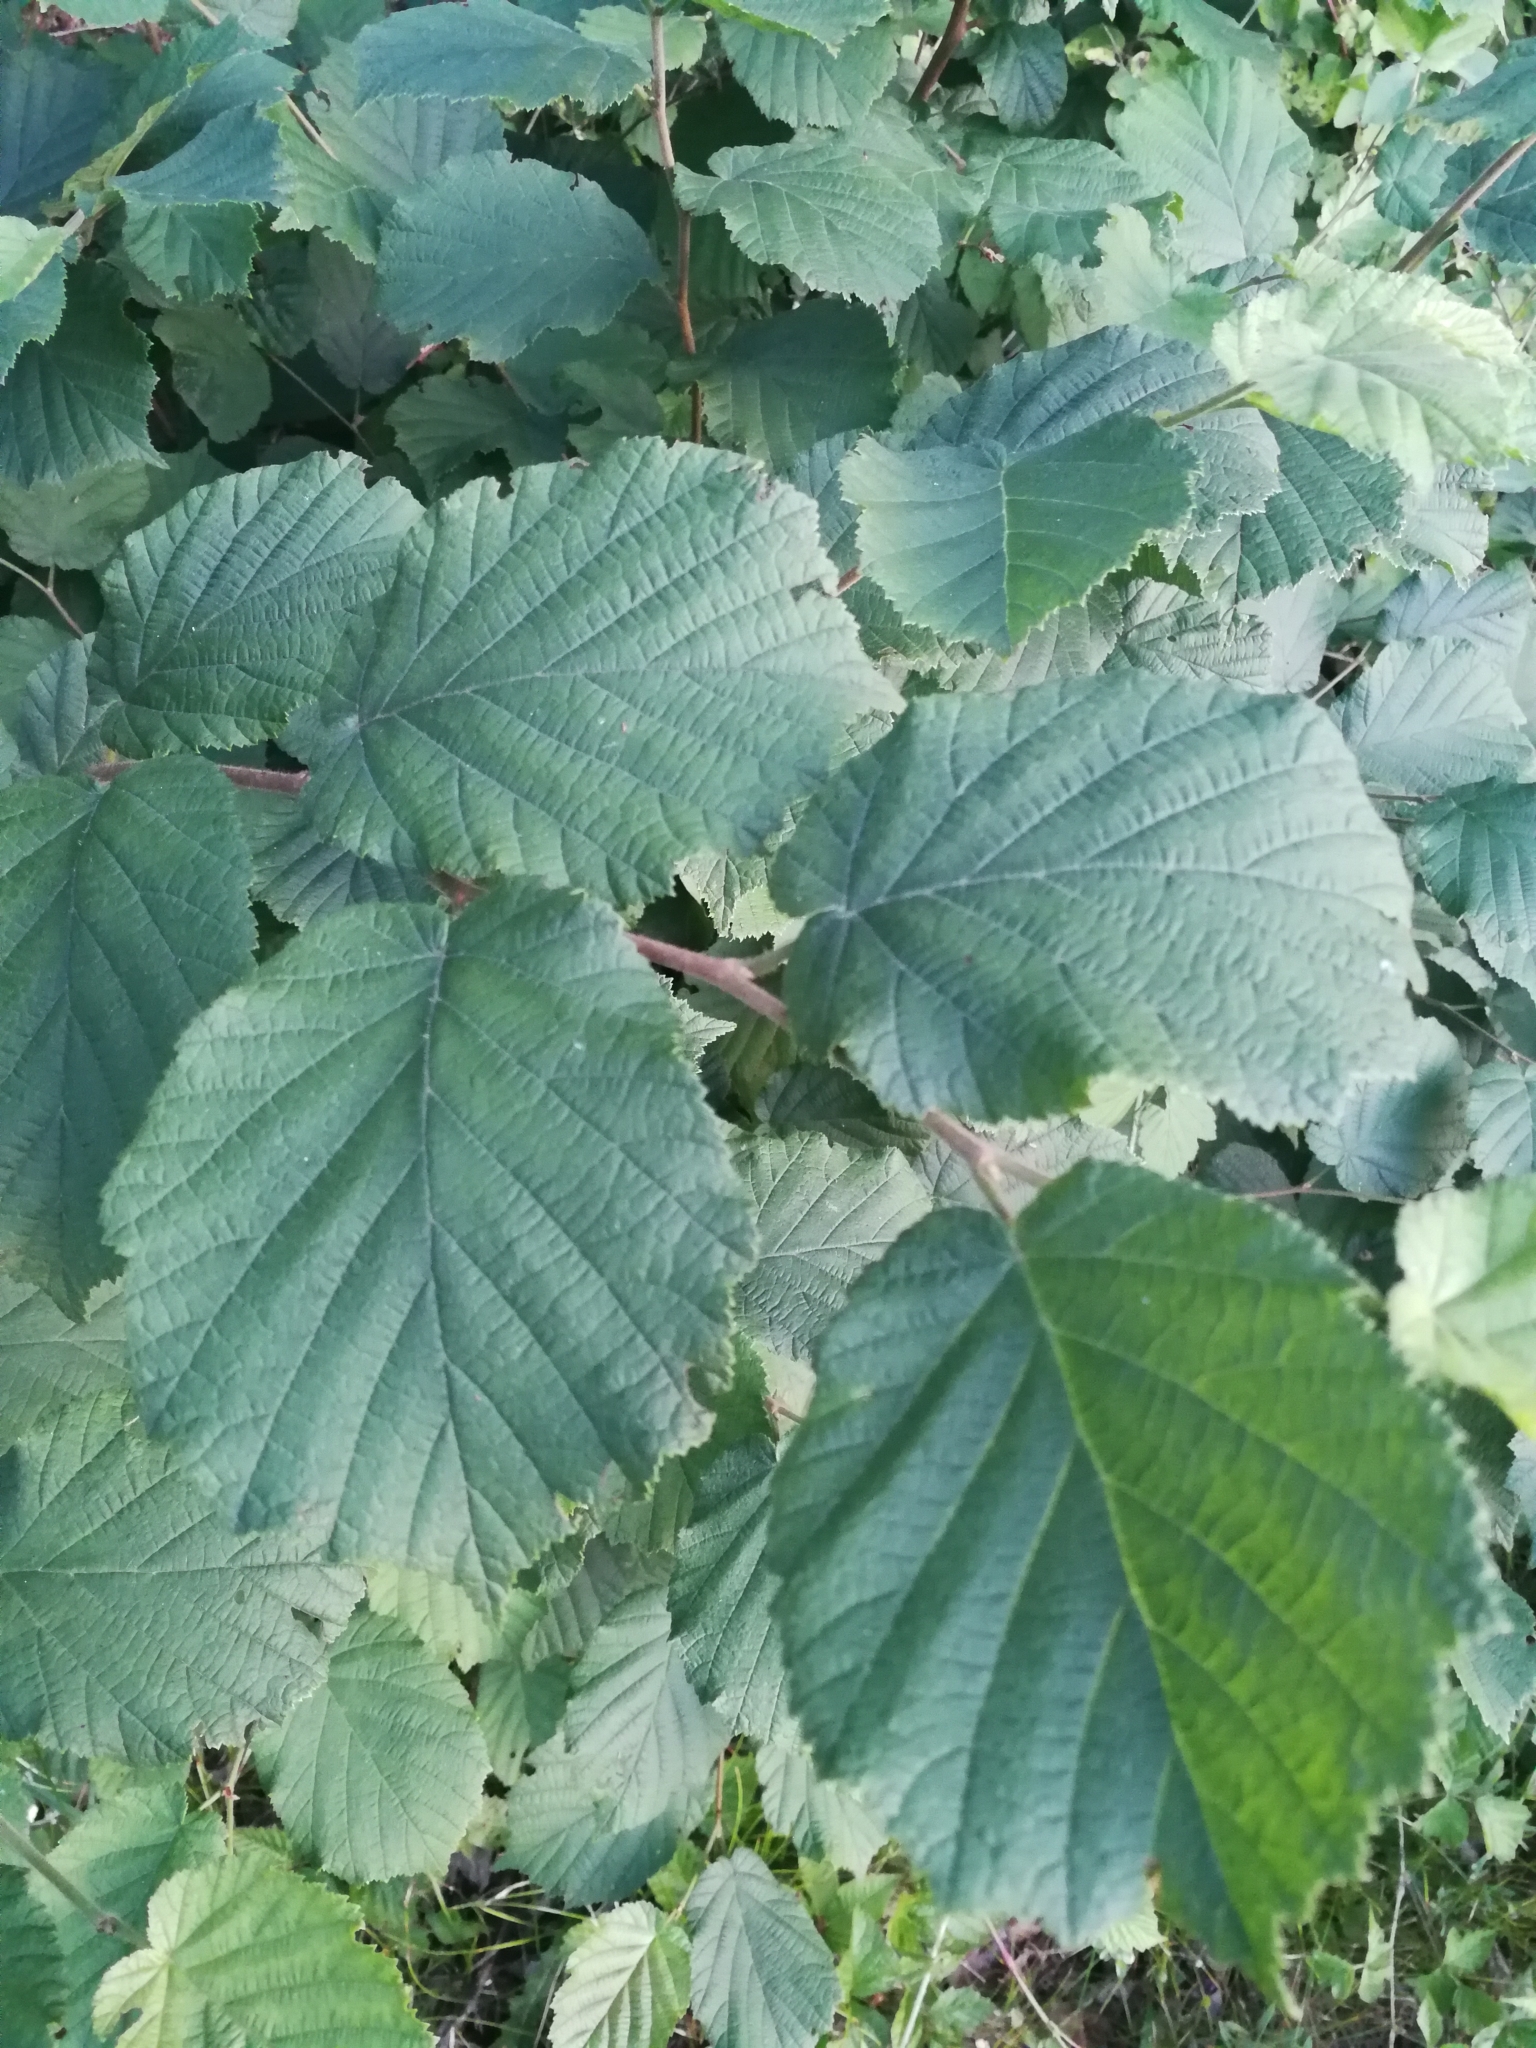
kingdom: Plantae
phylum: Tracheophyta
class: Magnoliopsida
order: Fagales
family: Betulaceae
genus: Corylus
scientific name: Corylus avellana
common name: European hazel
